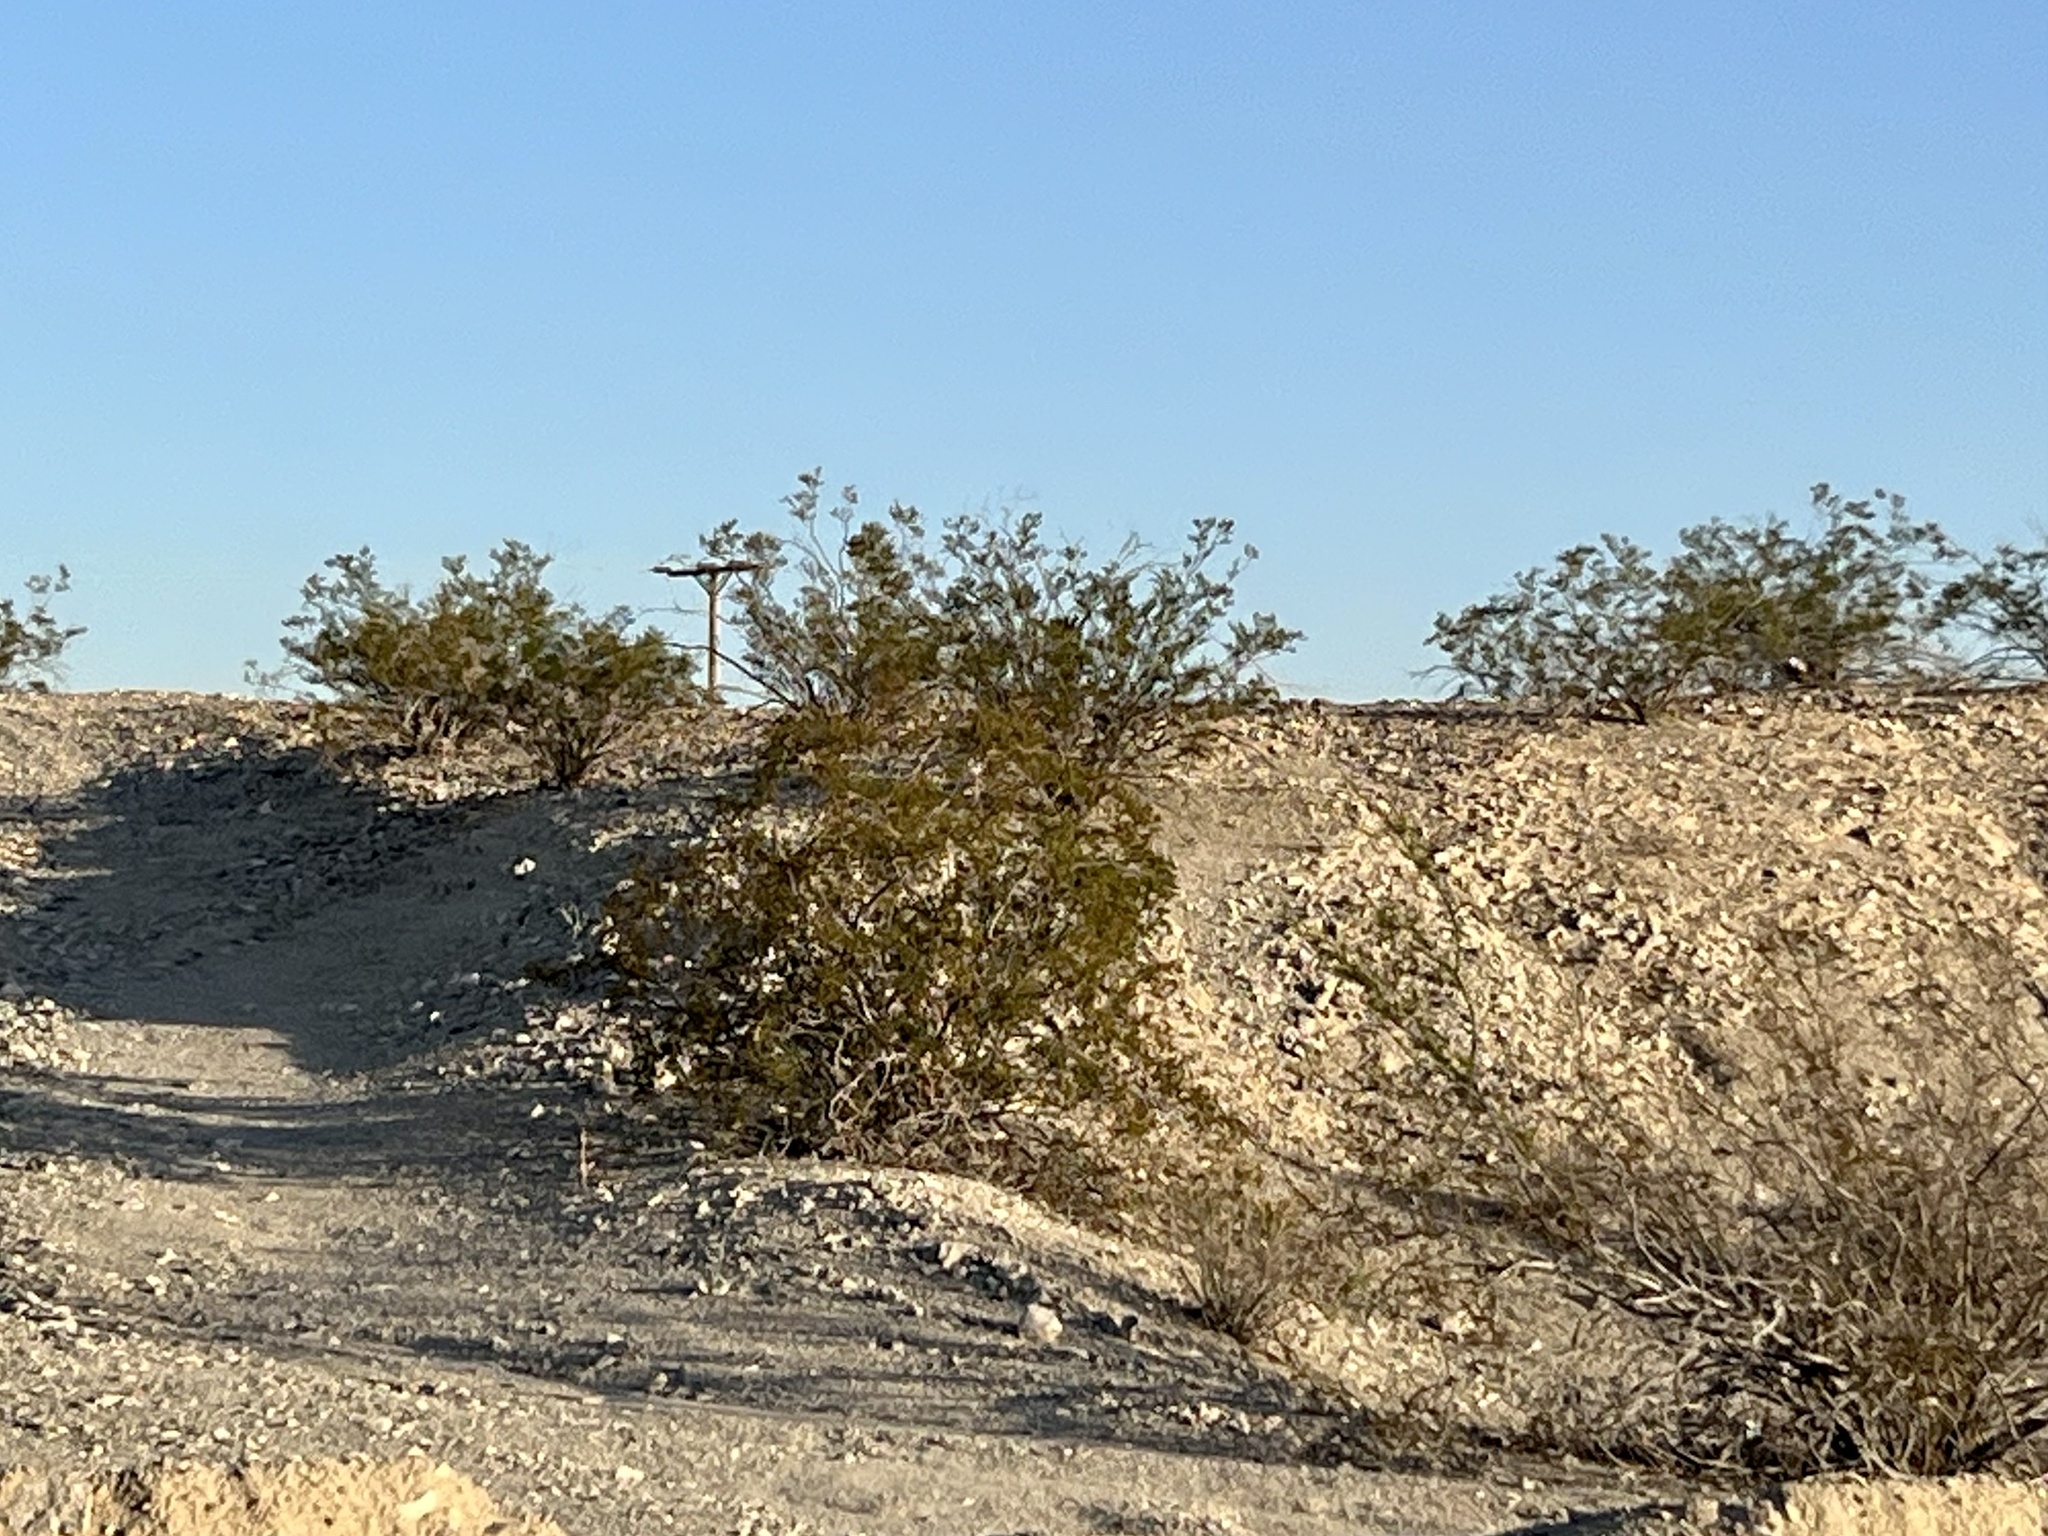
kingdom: Plantae
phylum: Tracheophyta
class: Magnoliopsida
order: Zygophyllales
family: Zygophyllaceae
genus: Larrea
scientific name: Larrea tridentata
